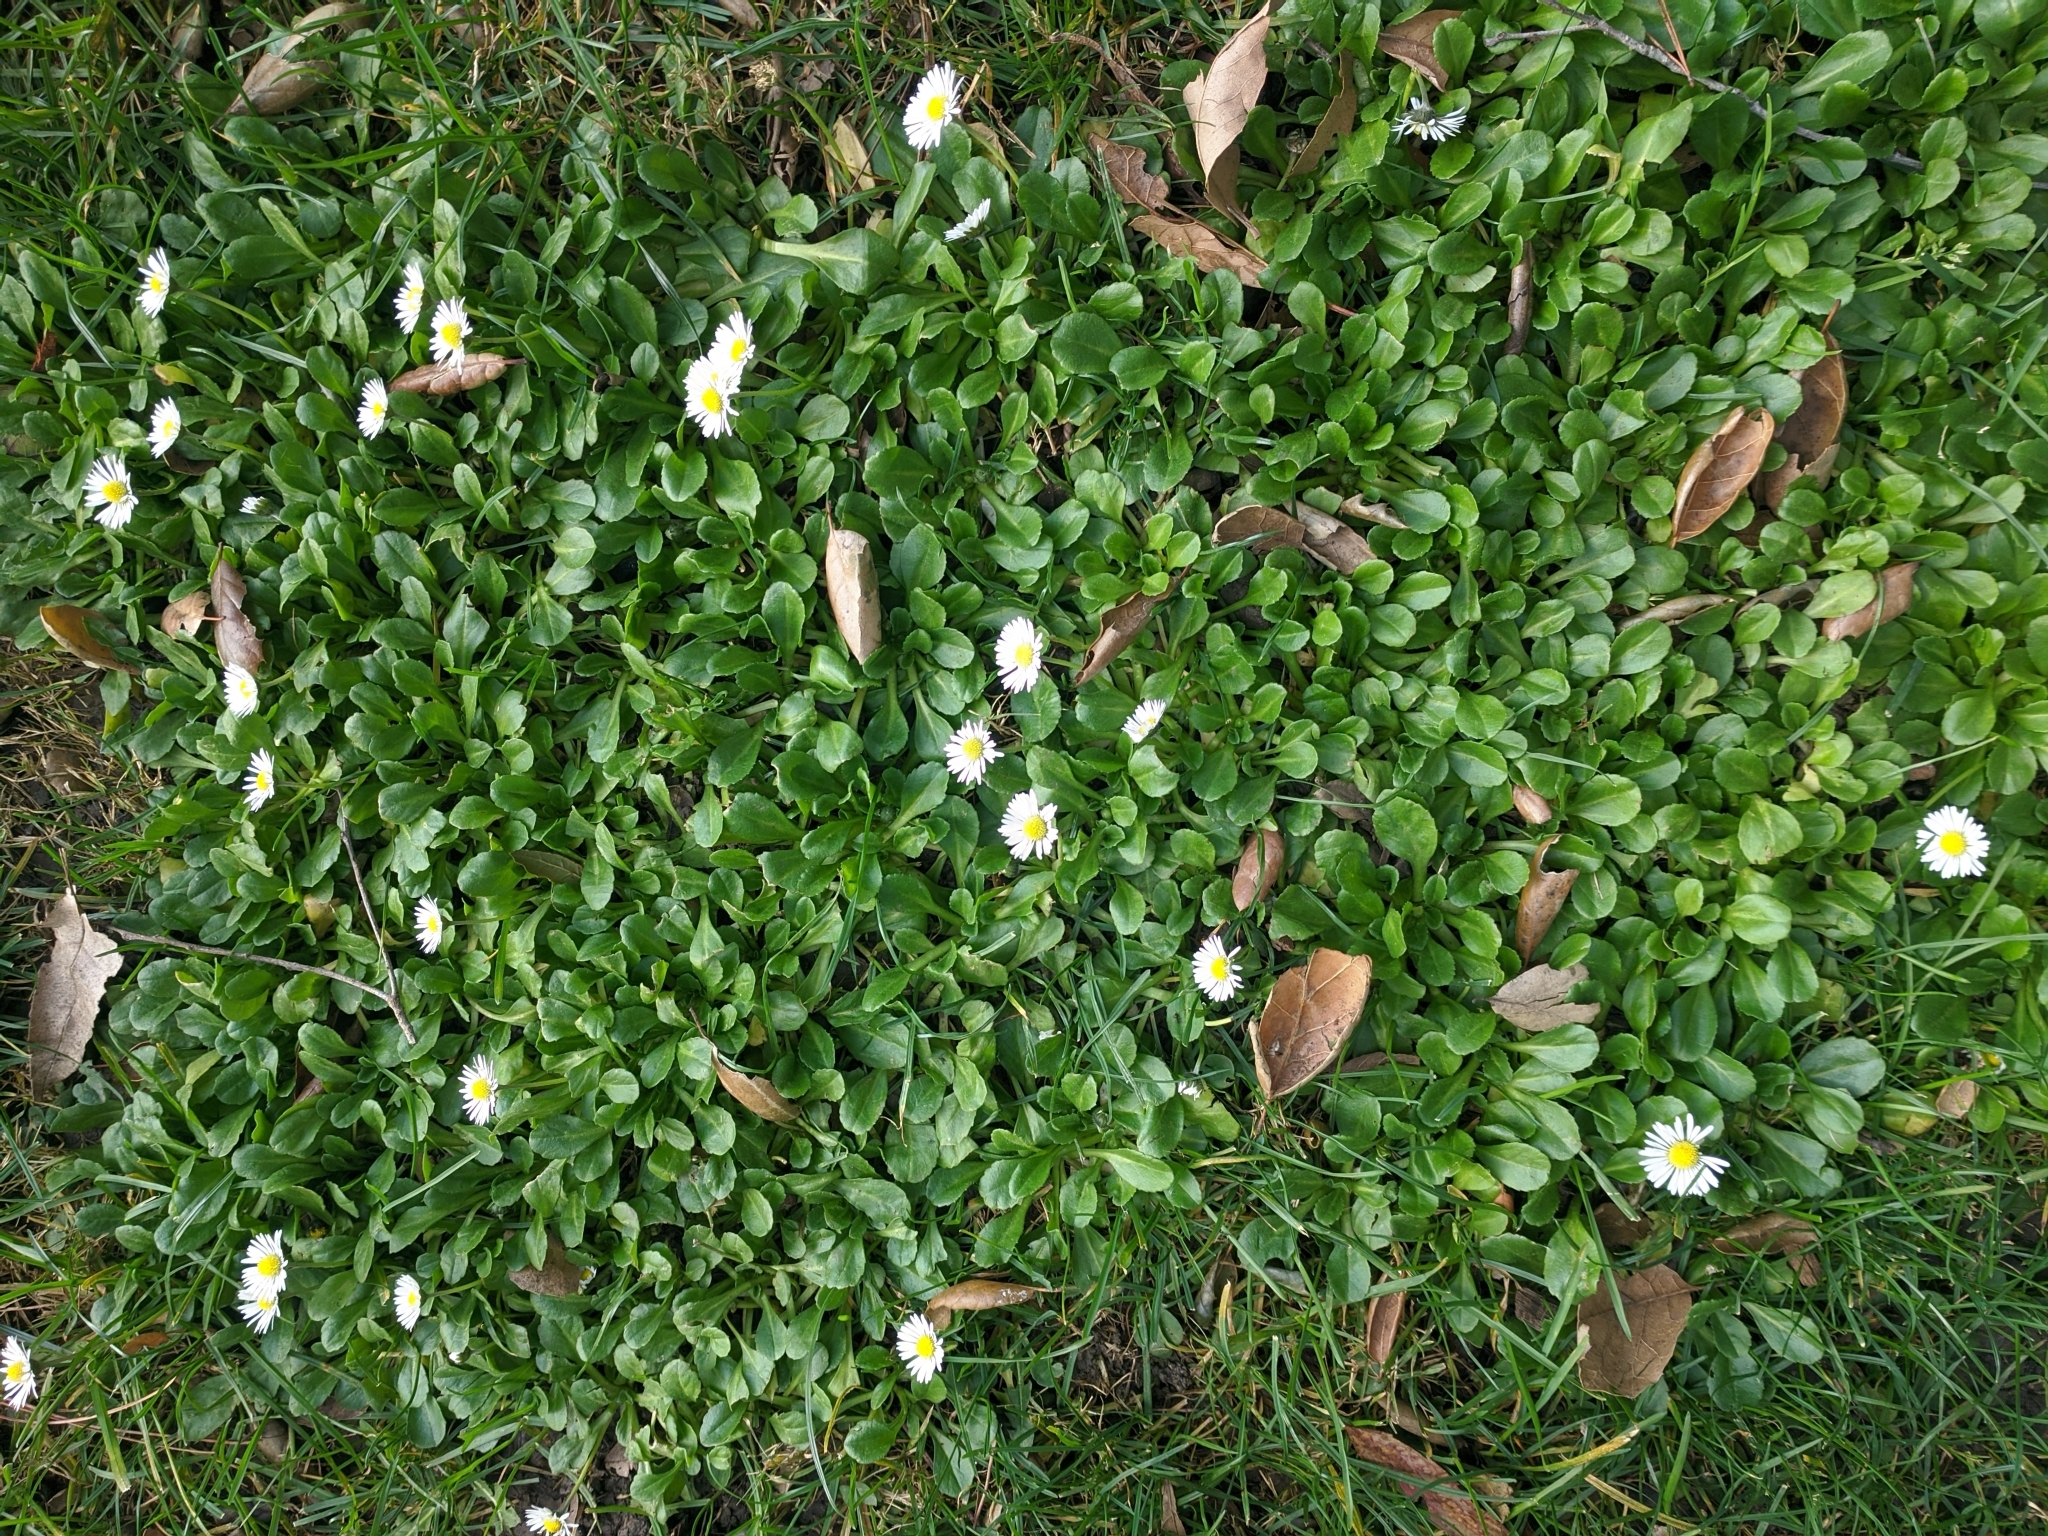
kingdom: Plantae
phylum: Tracheophyta
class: Magnoliopsida
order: Asterales
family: Asteraceae
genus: Bellis
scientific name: Bellis perennis
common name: Lawndaisy
